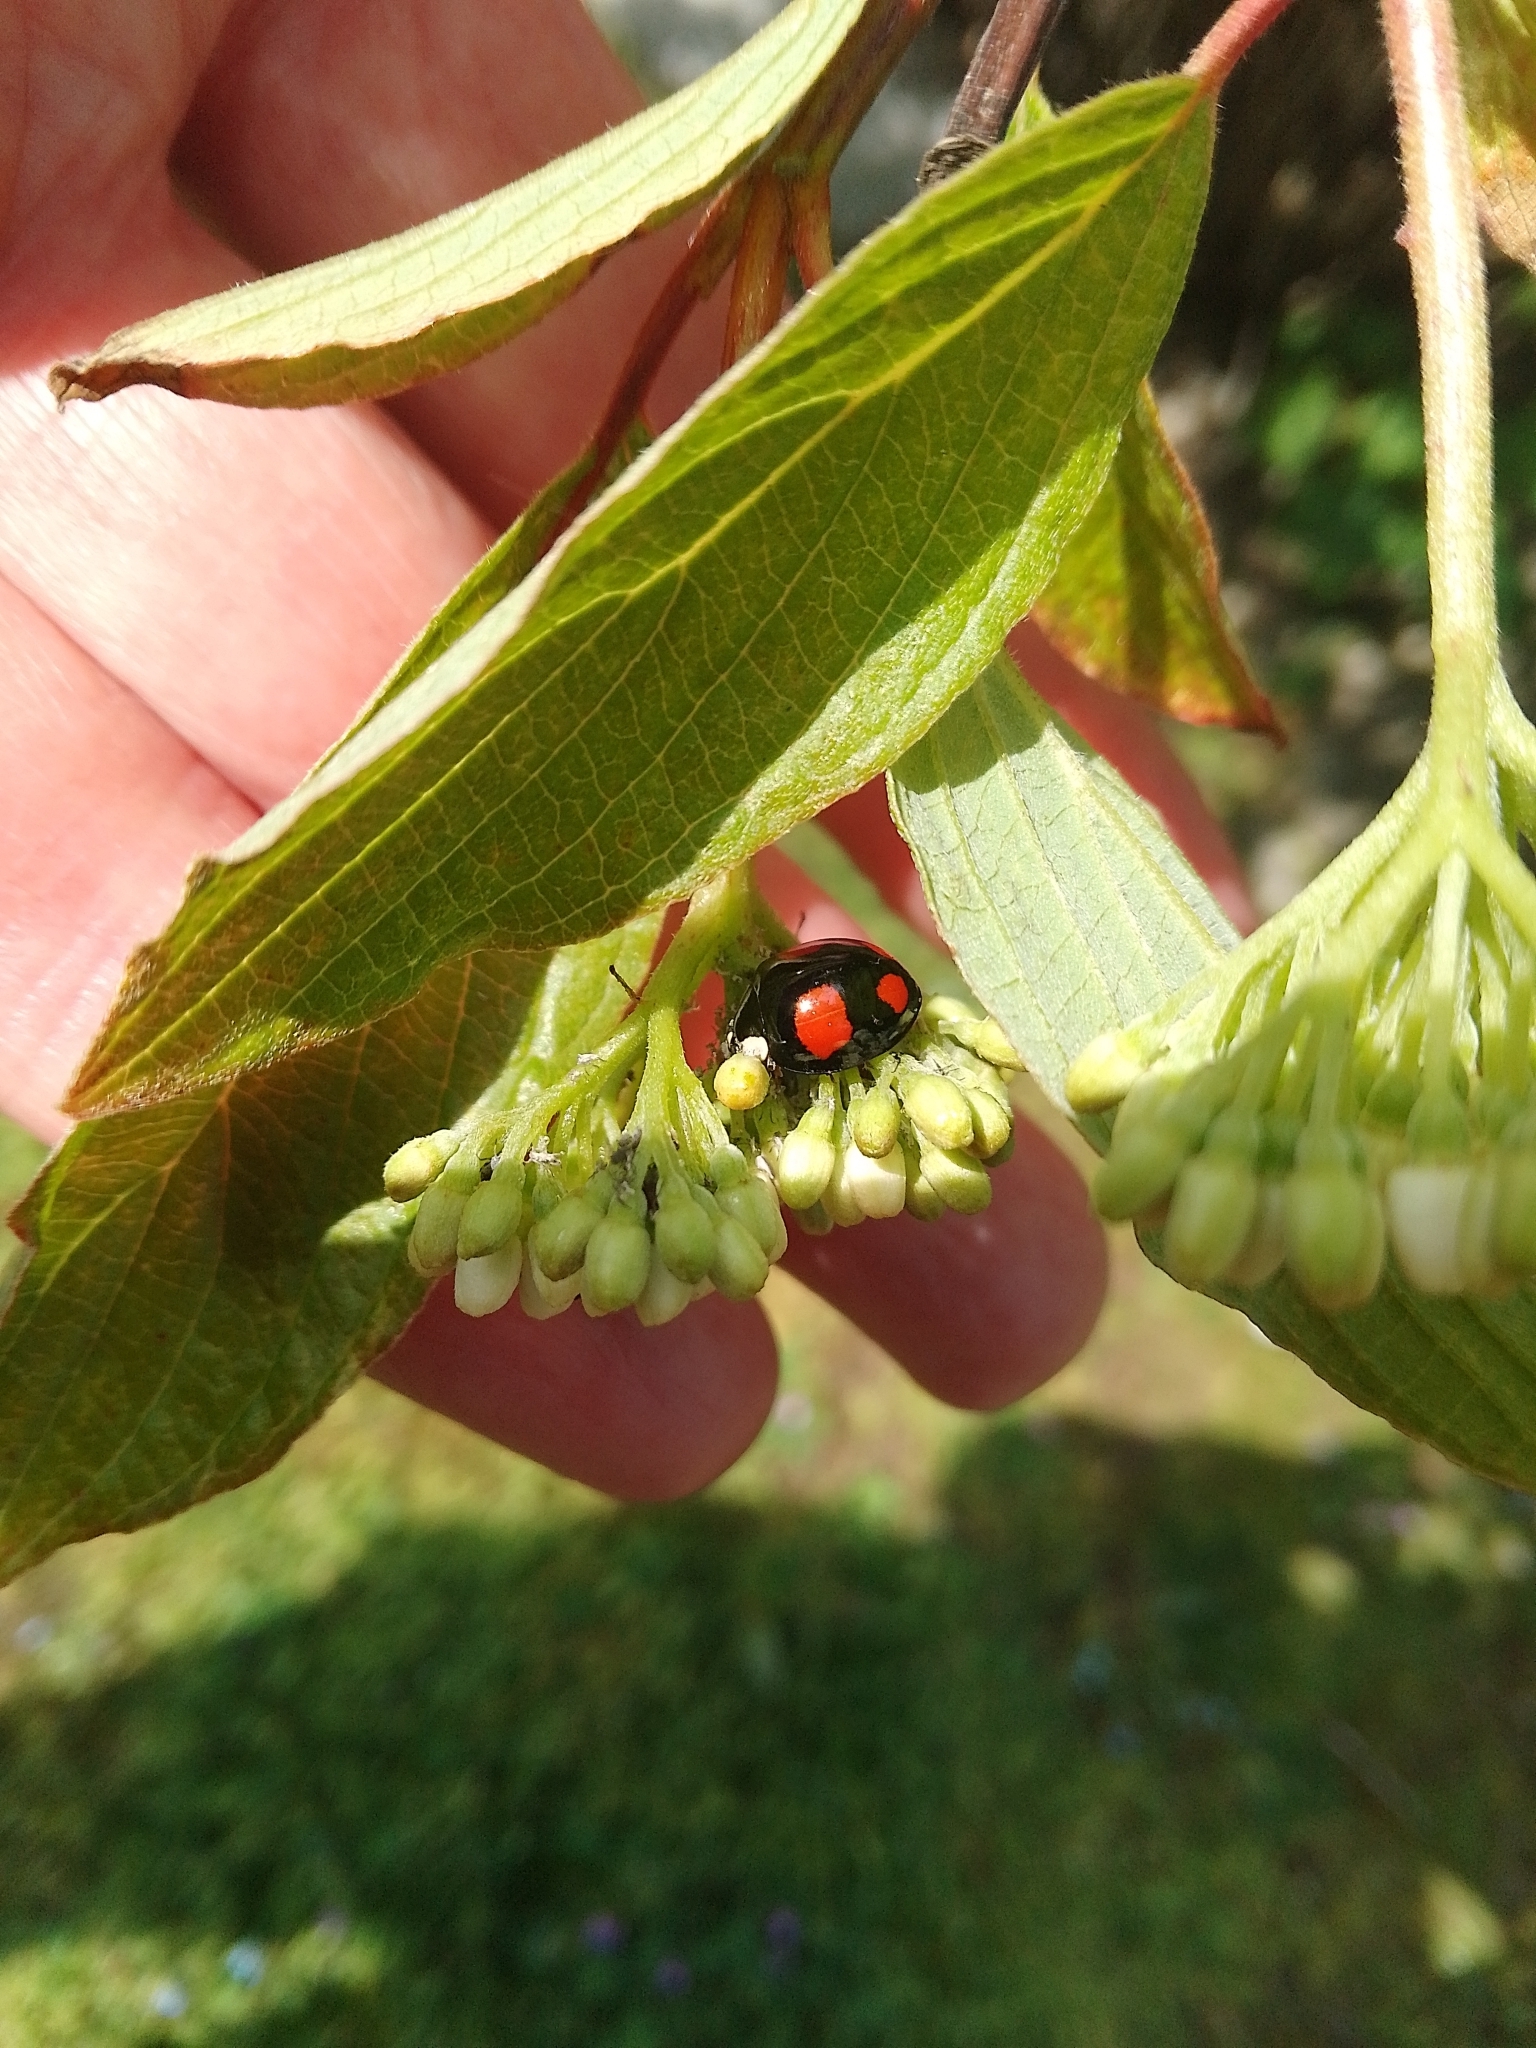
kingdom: Animalia
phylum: Arthropoda
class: Insecta
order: Coleoptera
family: Coccinellidae
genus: Harmonia
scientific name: Harmonia axyridis
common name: Harlequin ladybird
